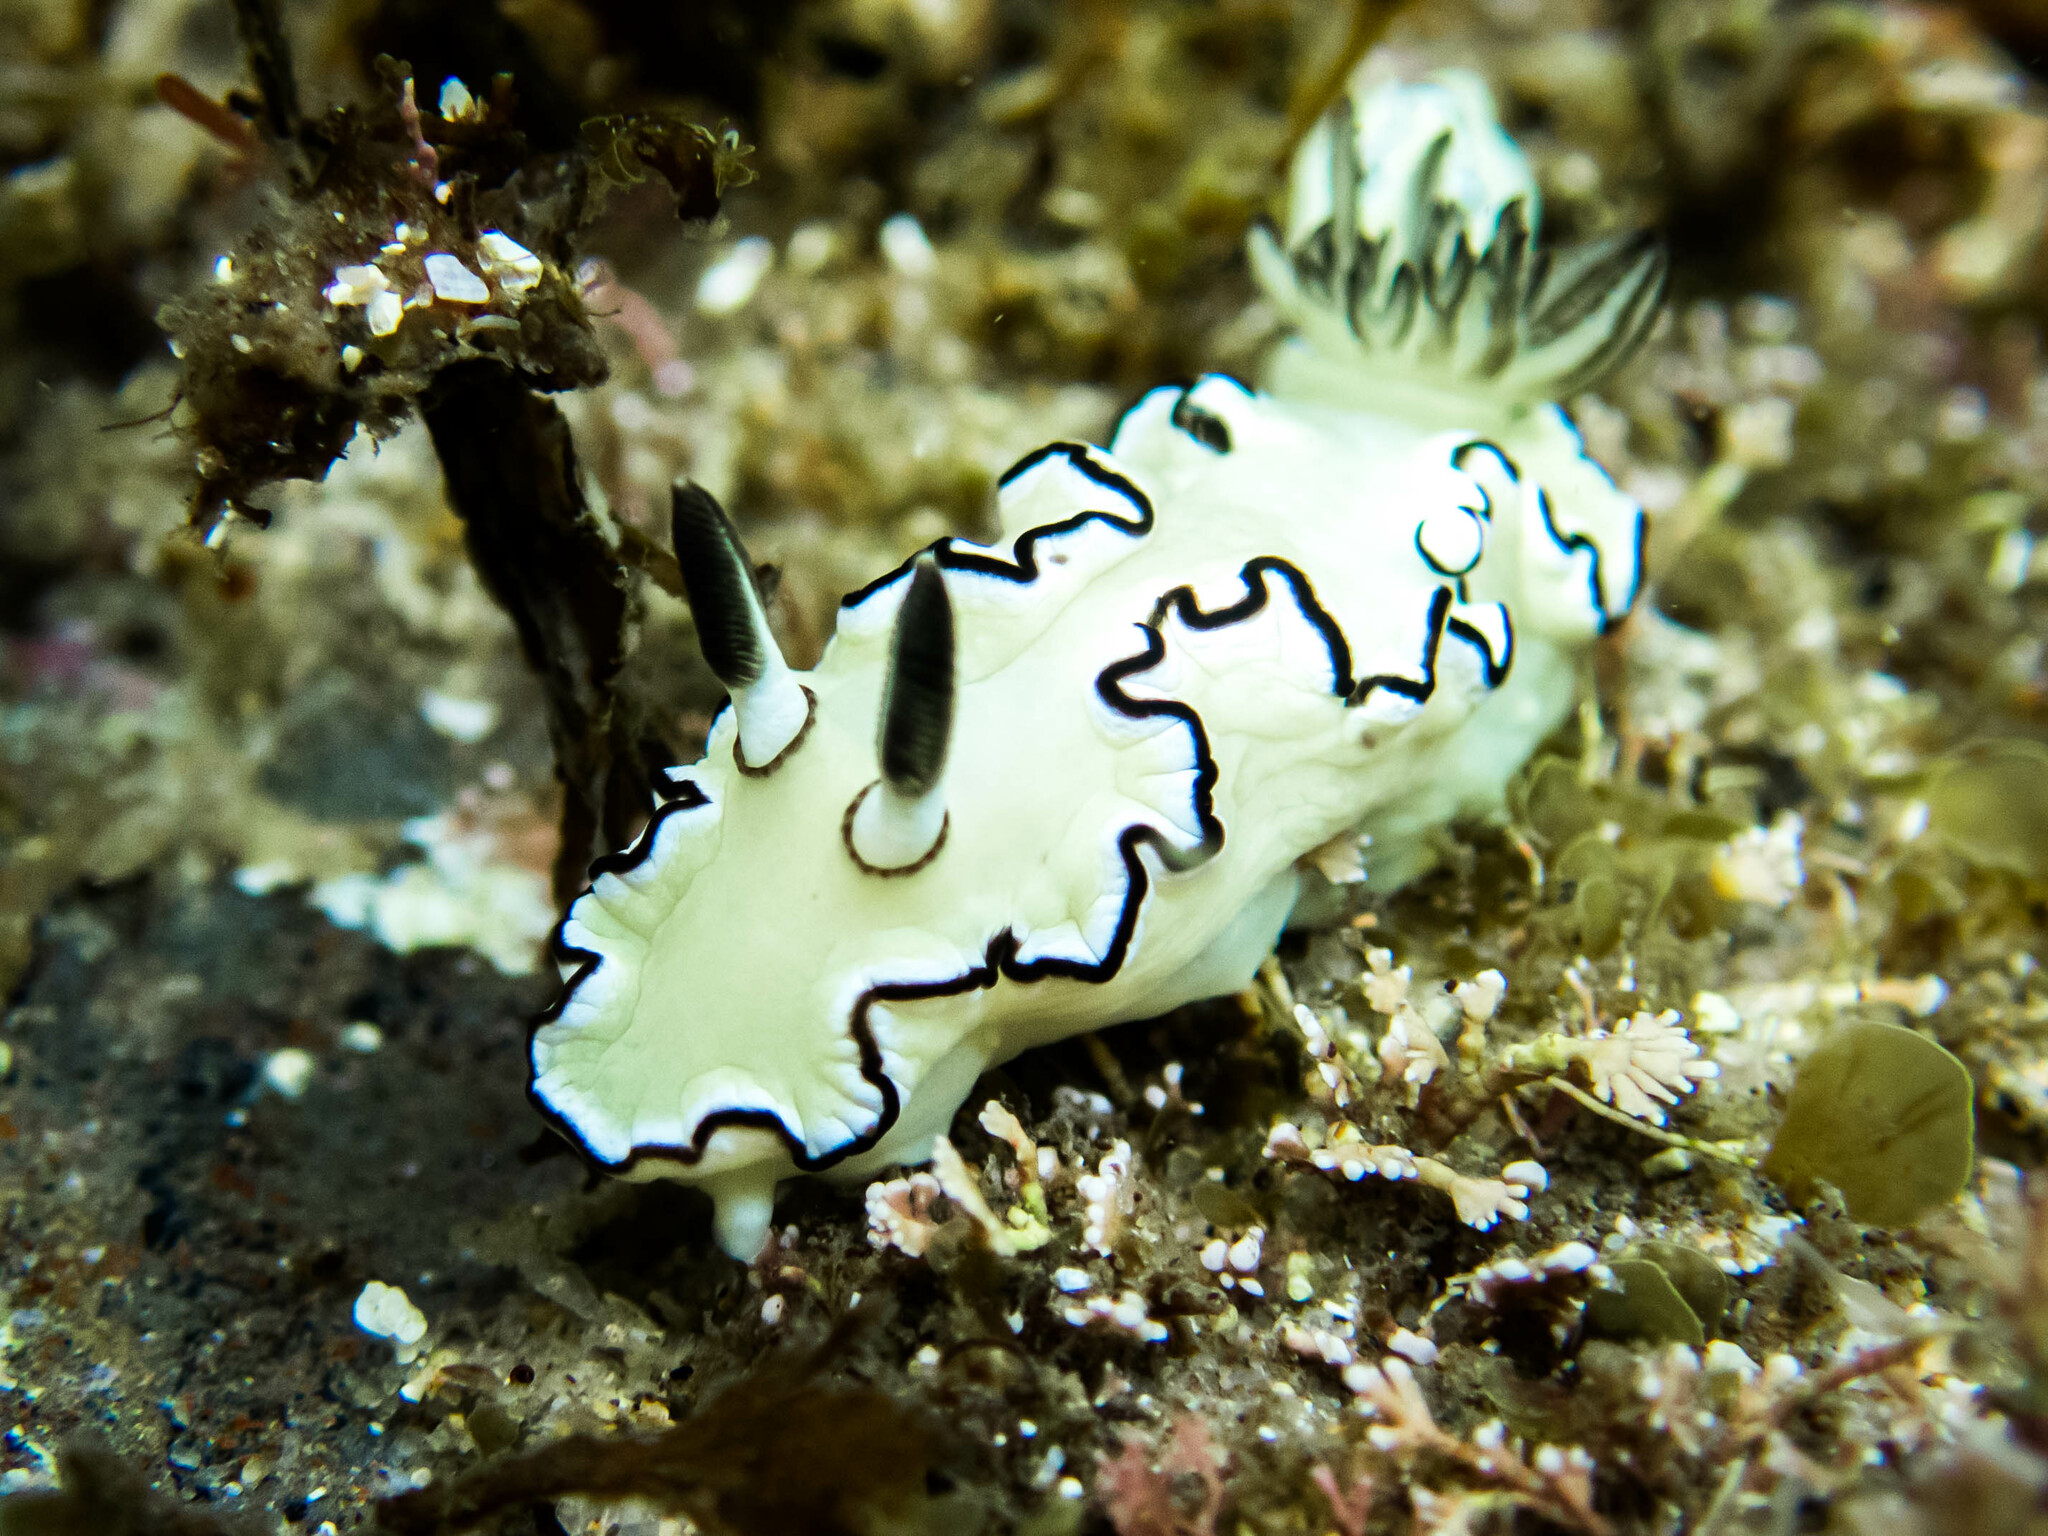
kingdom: Animalia
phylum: Mollusca
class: Gastropoda
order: Nudibranchia
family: Chromodorididae
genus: Doriprismatica
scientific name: Doriprismatica atromarginata
